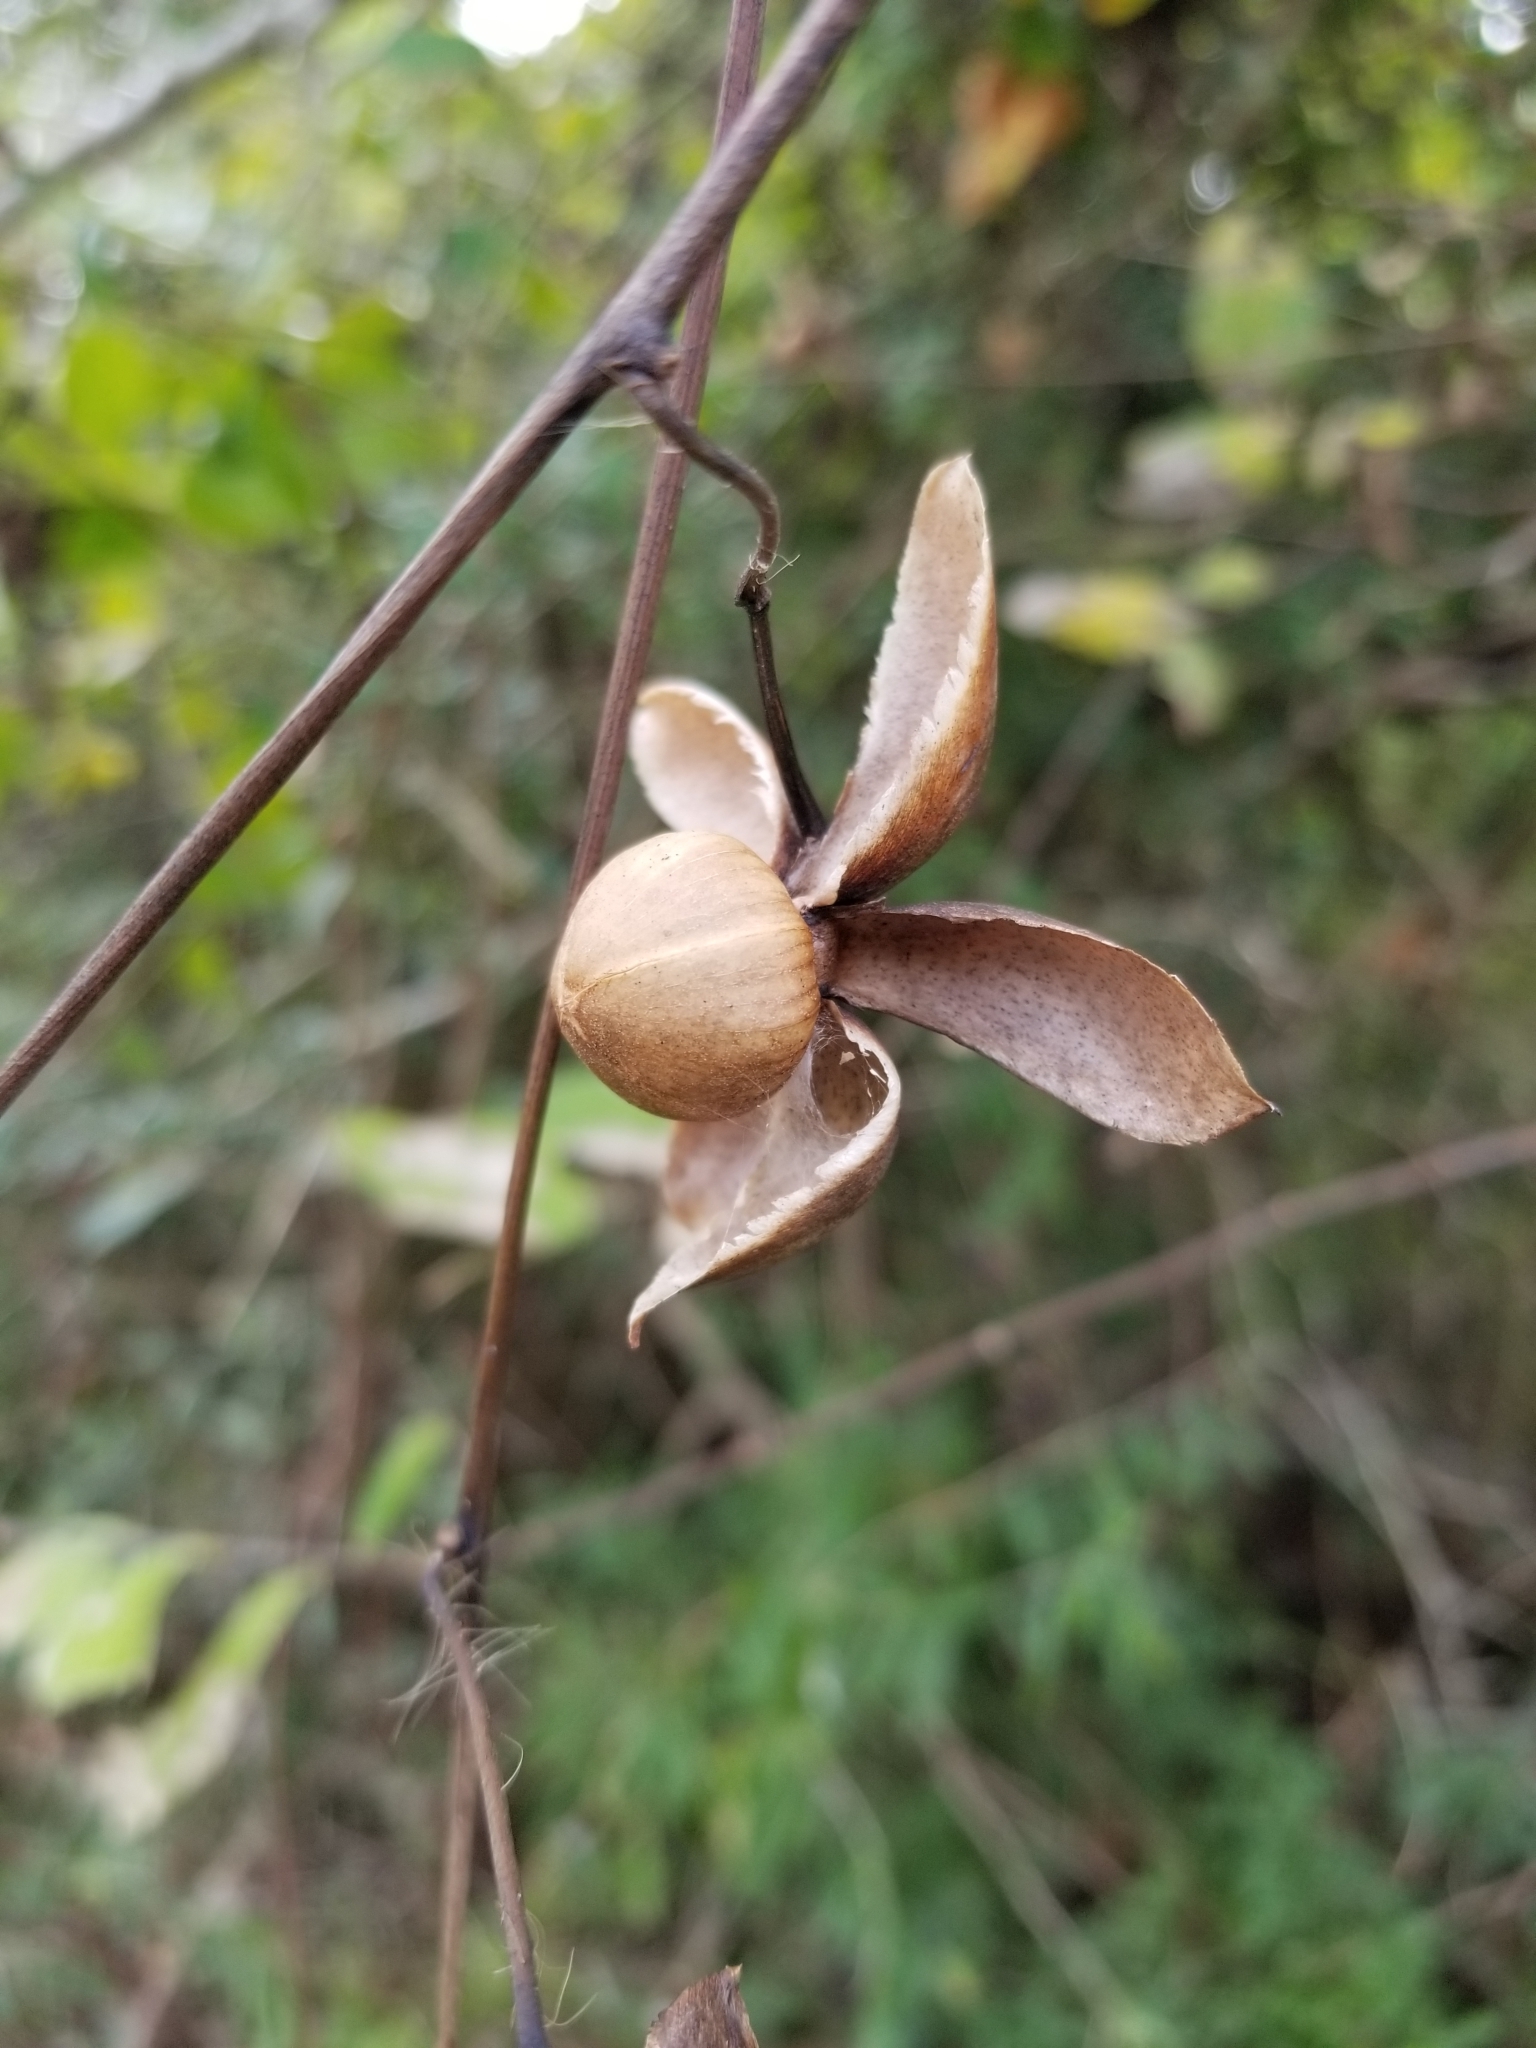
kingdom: Plantae
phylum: Tracheophyta
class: Magnoliopsida
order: Solanales
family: Convolvulaceae
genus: Distimake
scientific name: Distimake dissectus
